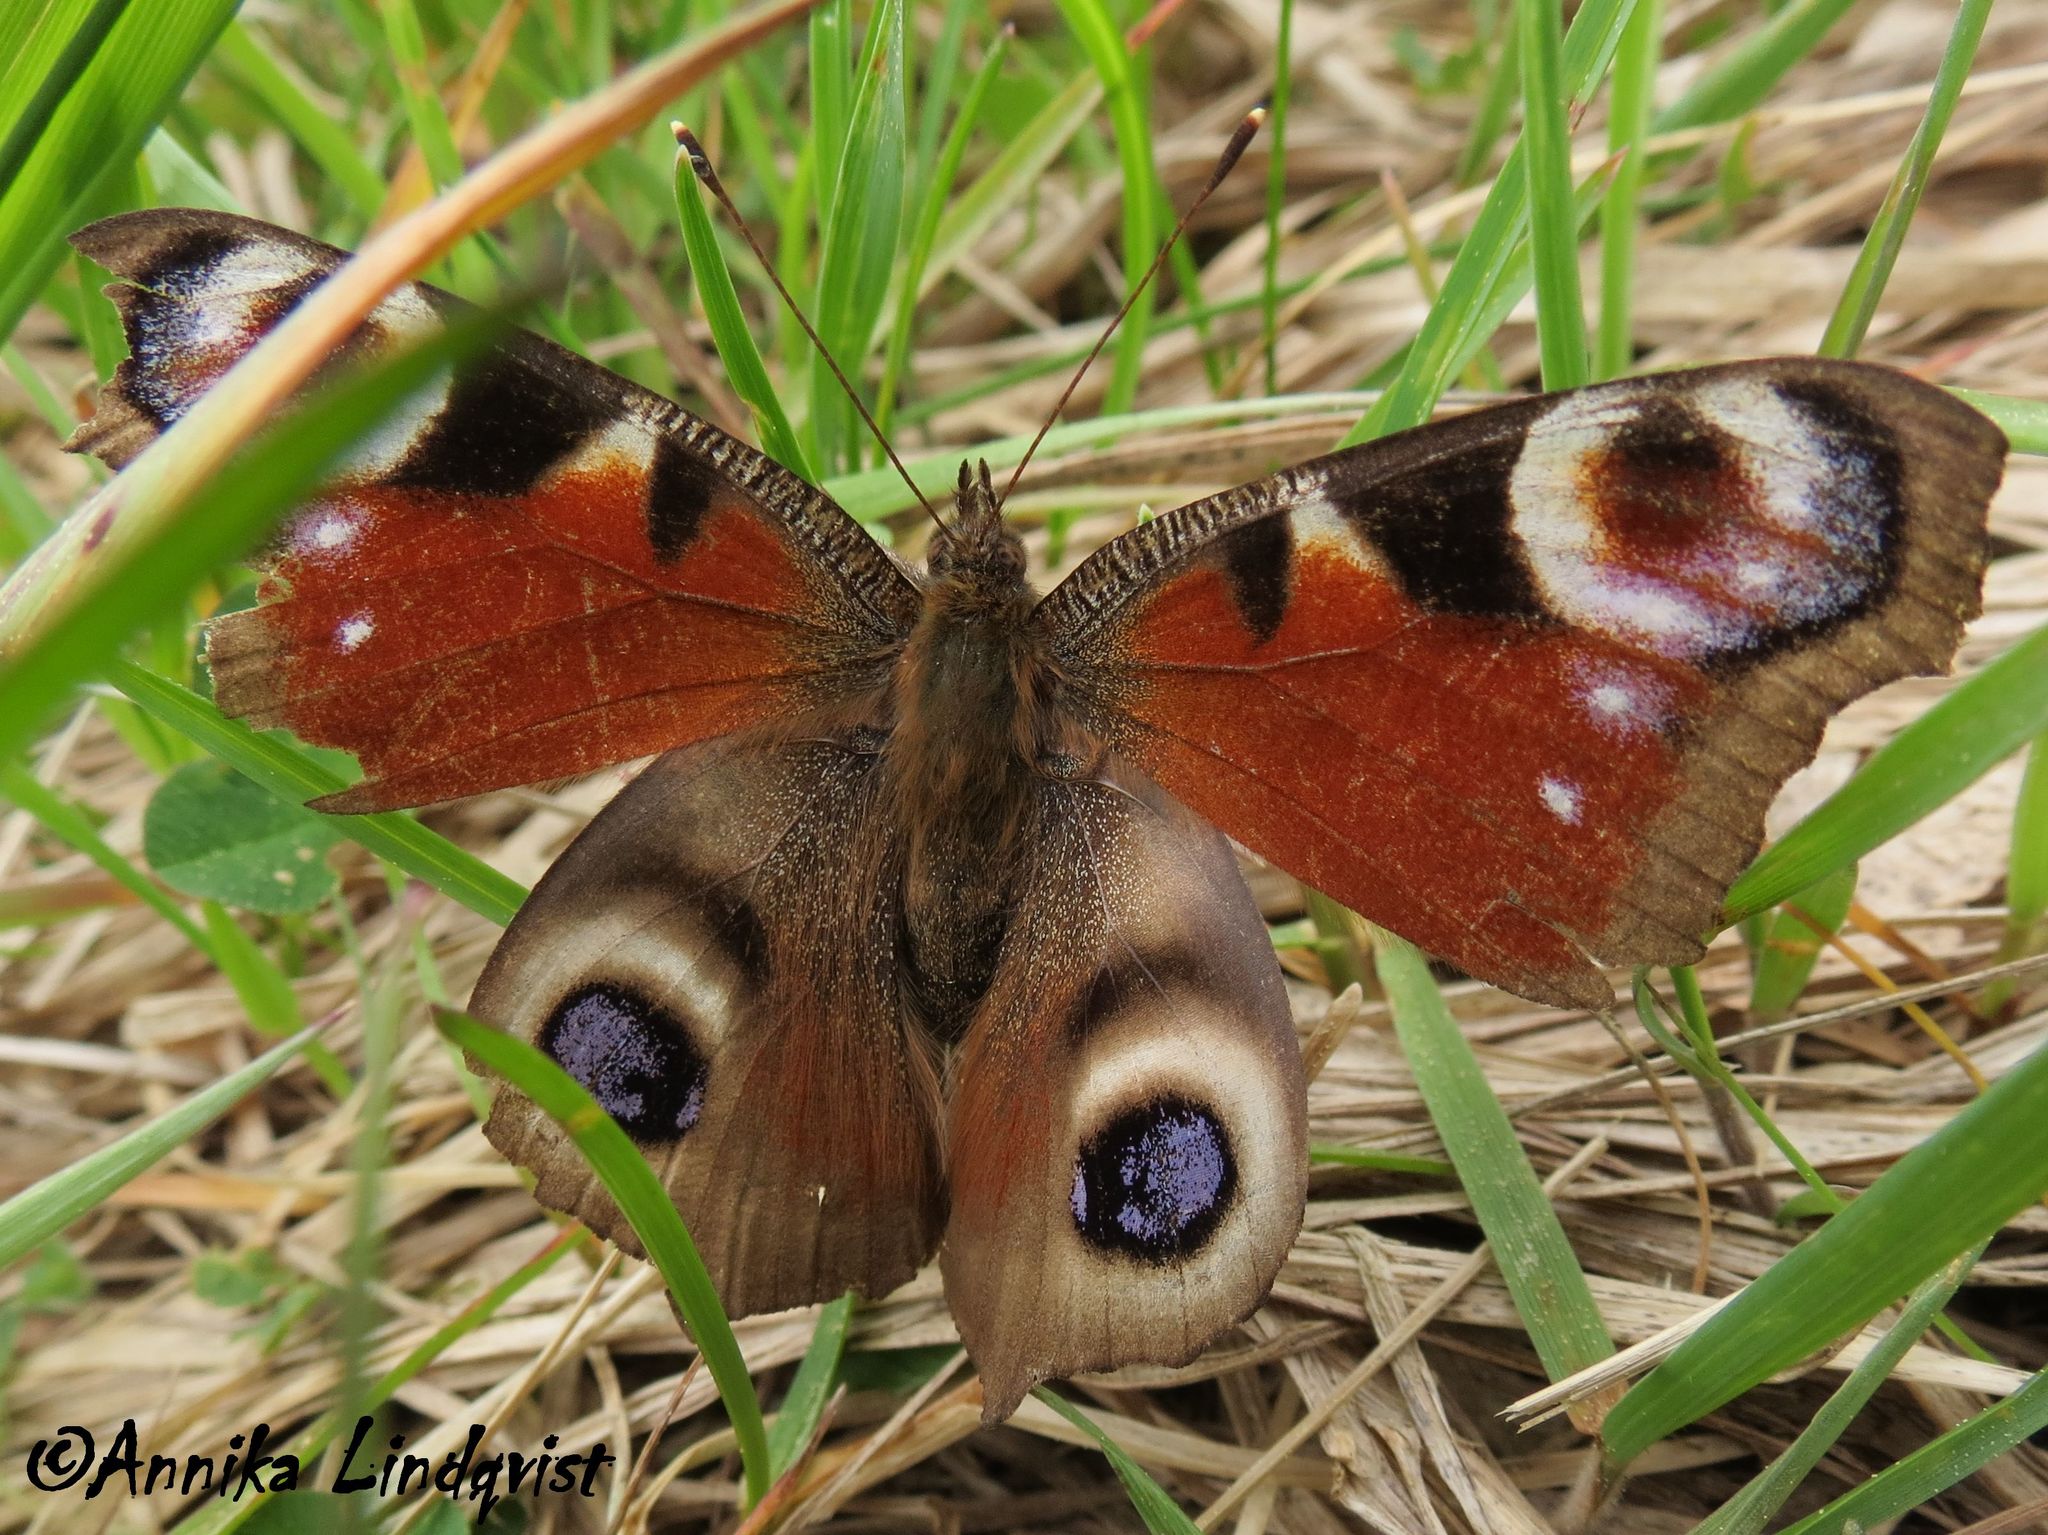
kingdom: Animalia
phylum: Arthropoda
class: Insecta
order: Lepidoptera
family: Nymphalidae
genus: Aglais
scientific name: Aglais io
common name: Peacock
